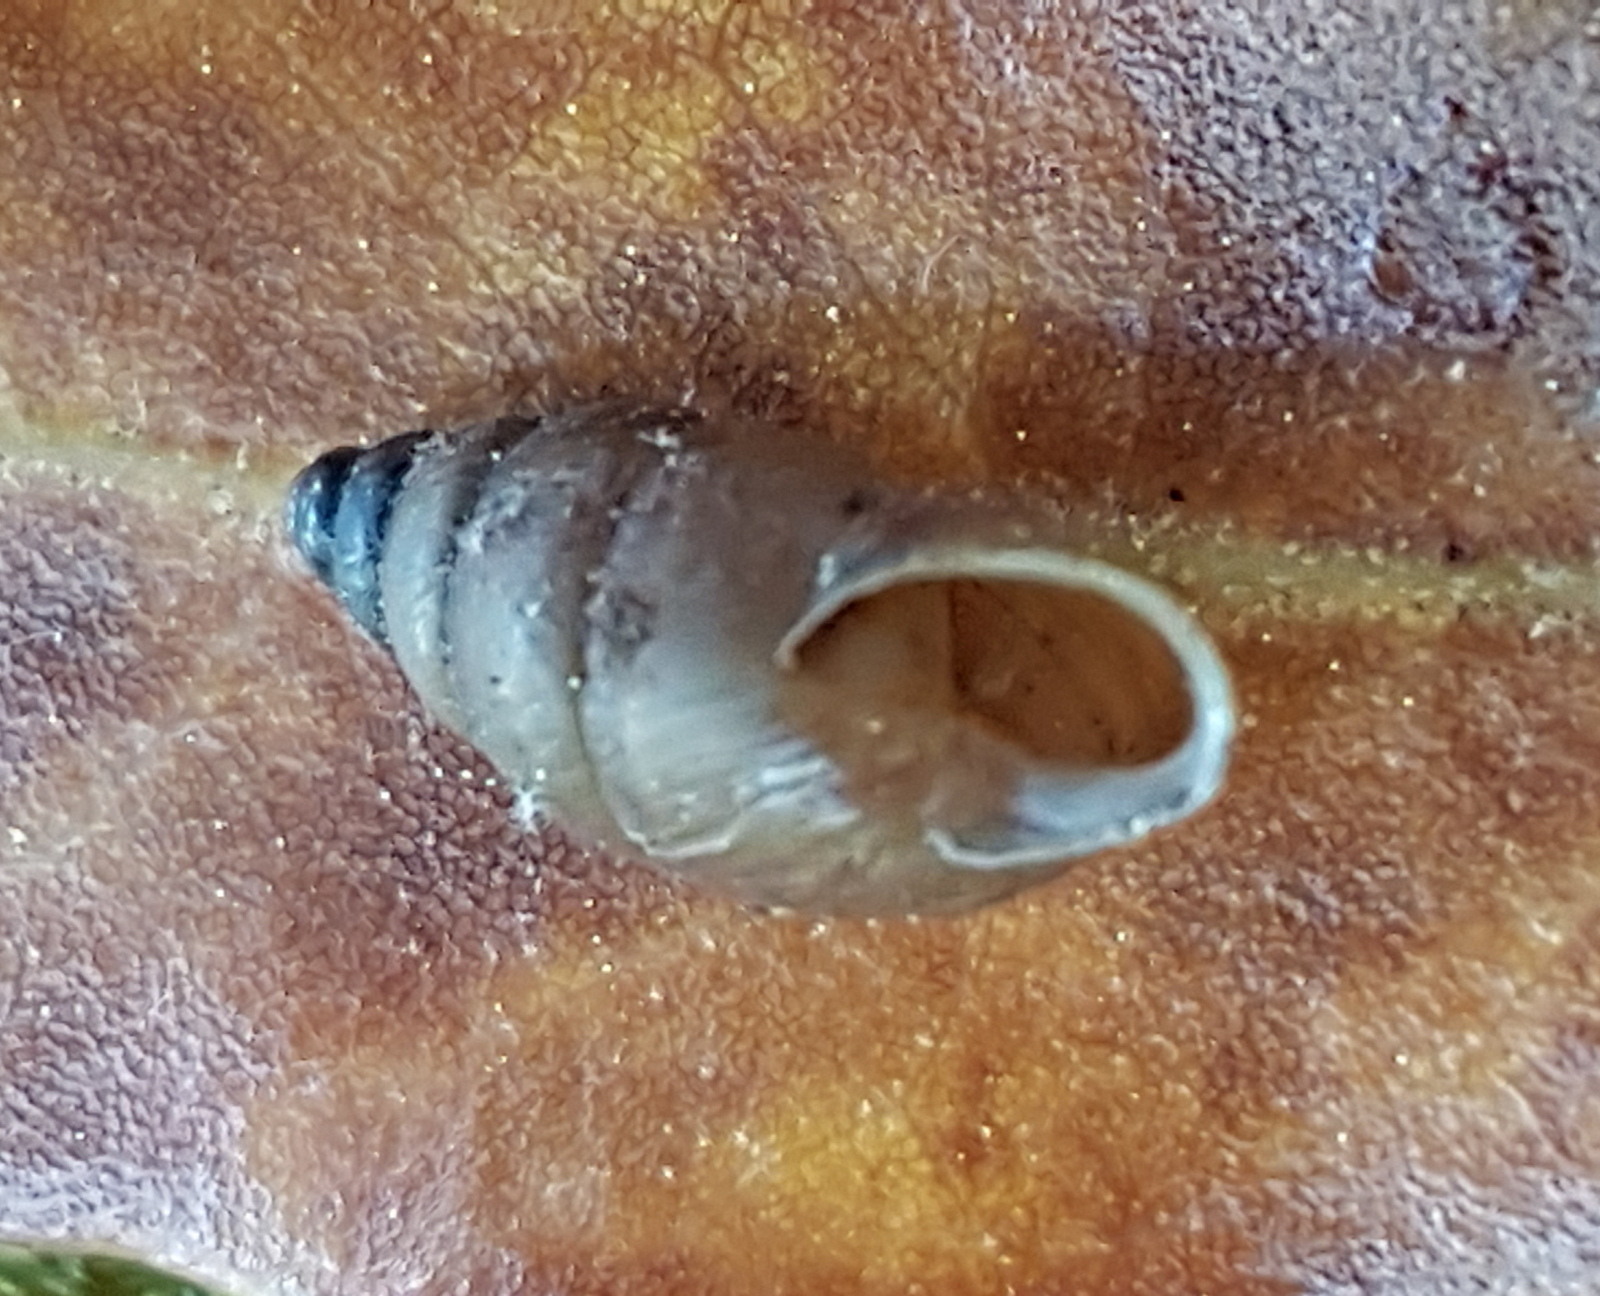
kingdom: Animalia
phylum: Mollusca
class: Gastropoda
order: Stylommatophora
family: Enidae
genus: Merdigera
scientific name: Merdigera obscura
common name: Lesser bulin
